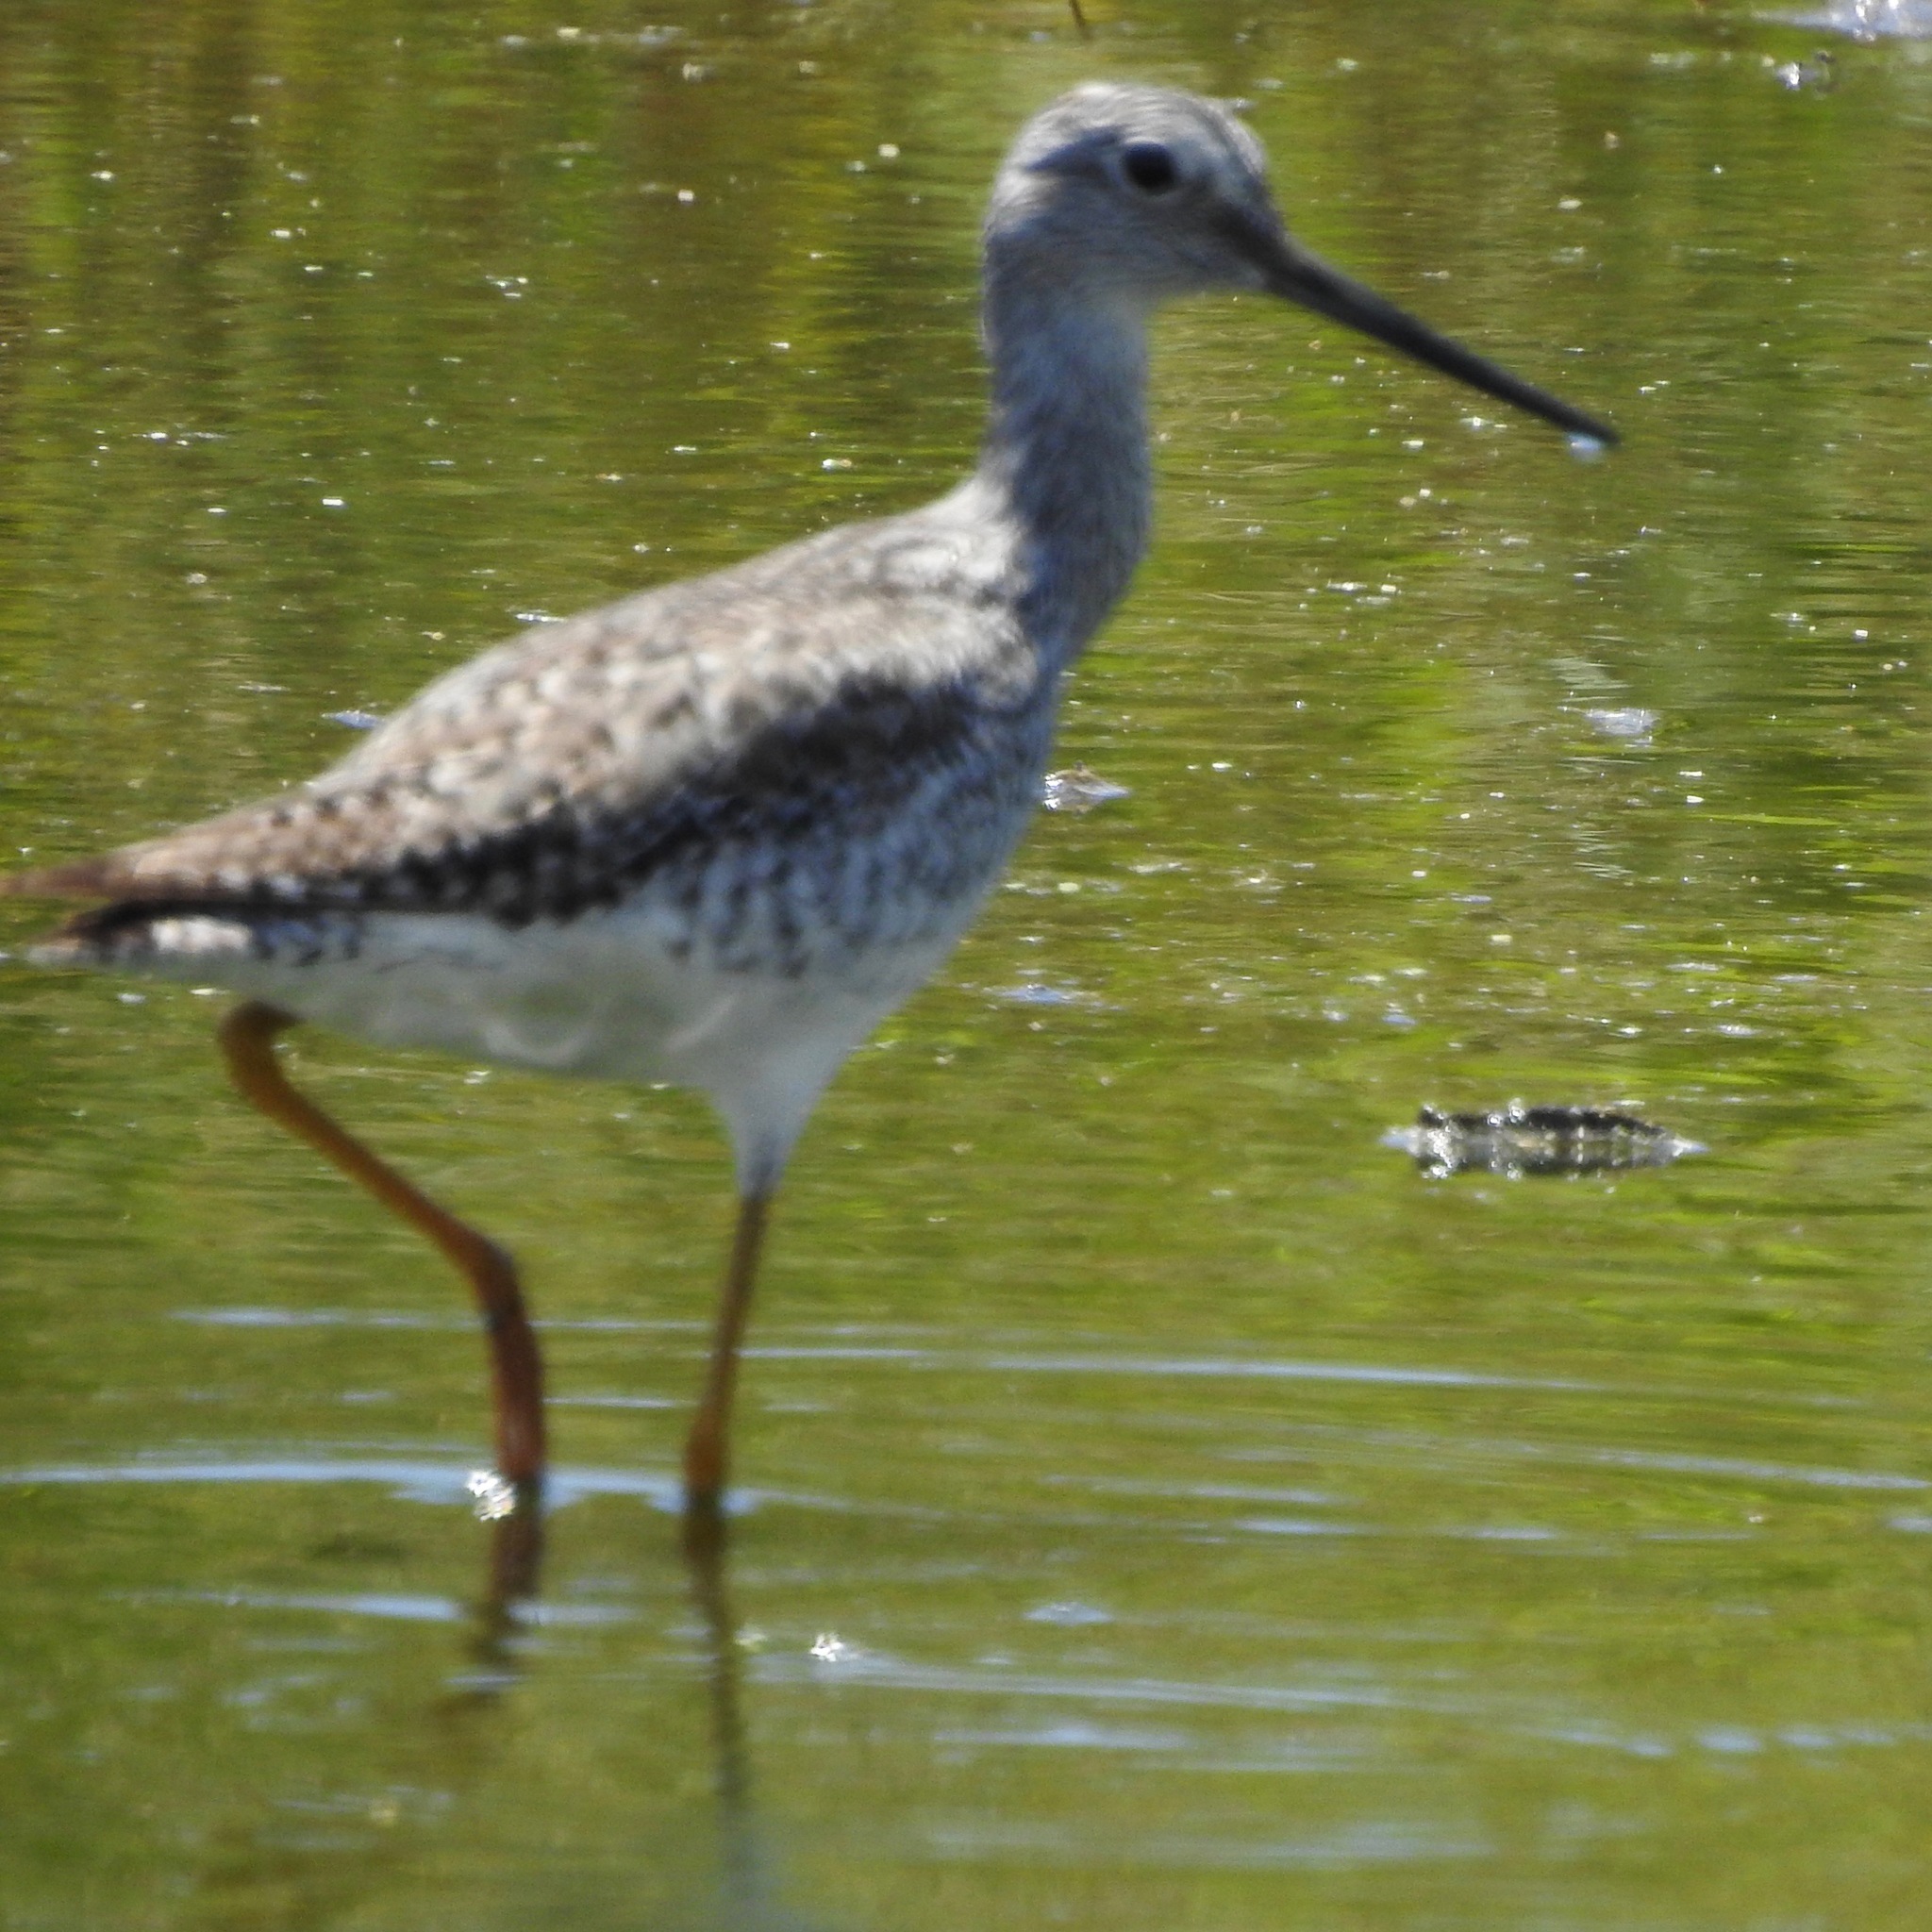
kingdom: Animalia
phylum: Chordata
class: Aves
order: Charadriiformes
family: Scolopacidae
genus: Tringa
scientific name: Tringa melanoleuca
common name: Greater yellowlegs
